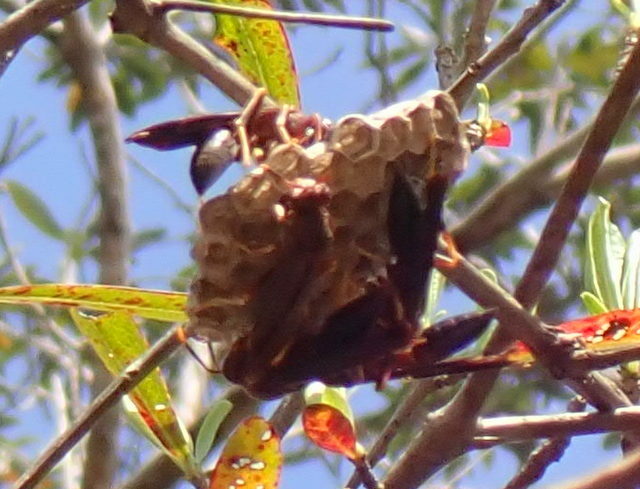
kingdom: Animalia
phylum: Arthropoda
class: Insecta
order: Hymenoptera
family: Eumenidae
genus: Polistes
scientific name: Polistes annularis
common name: Ringed paper wasp
